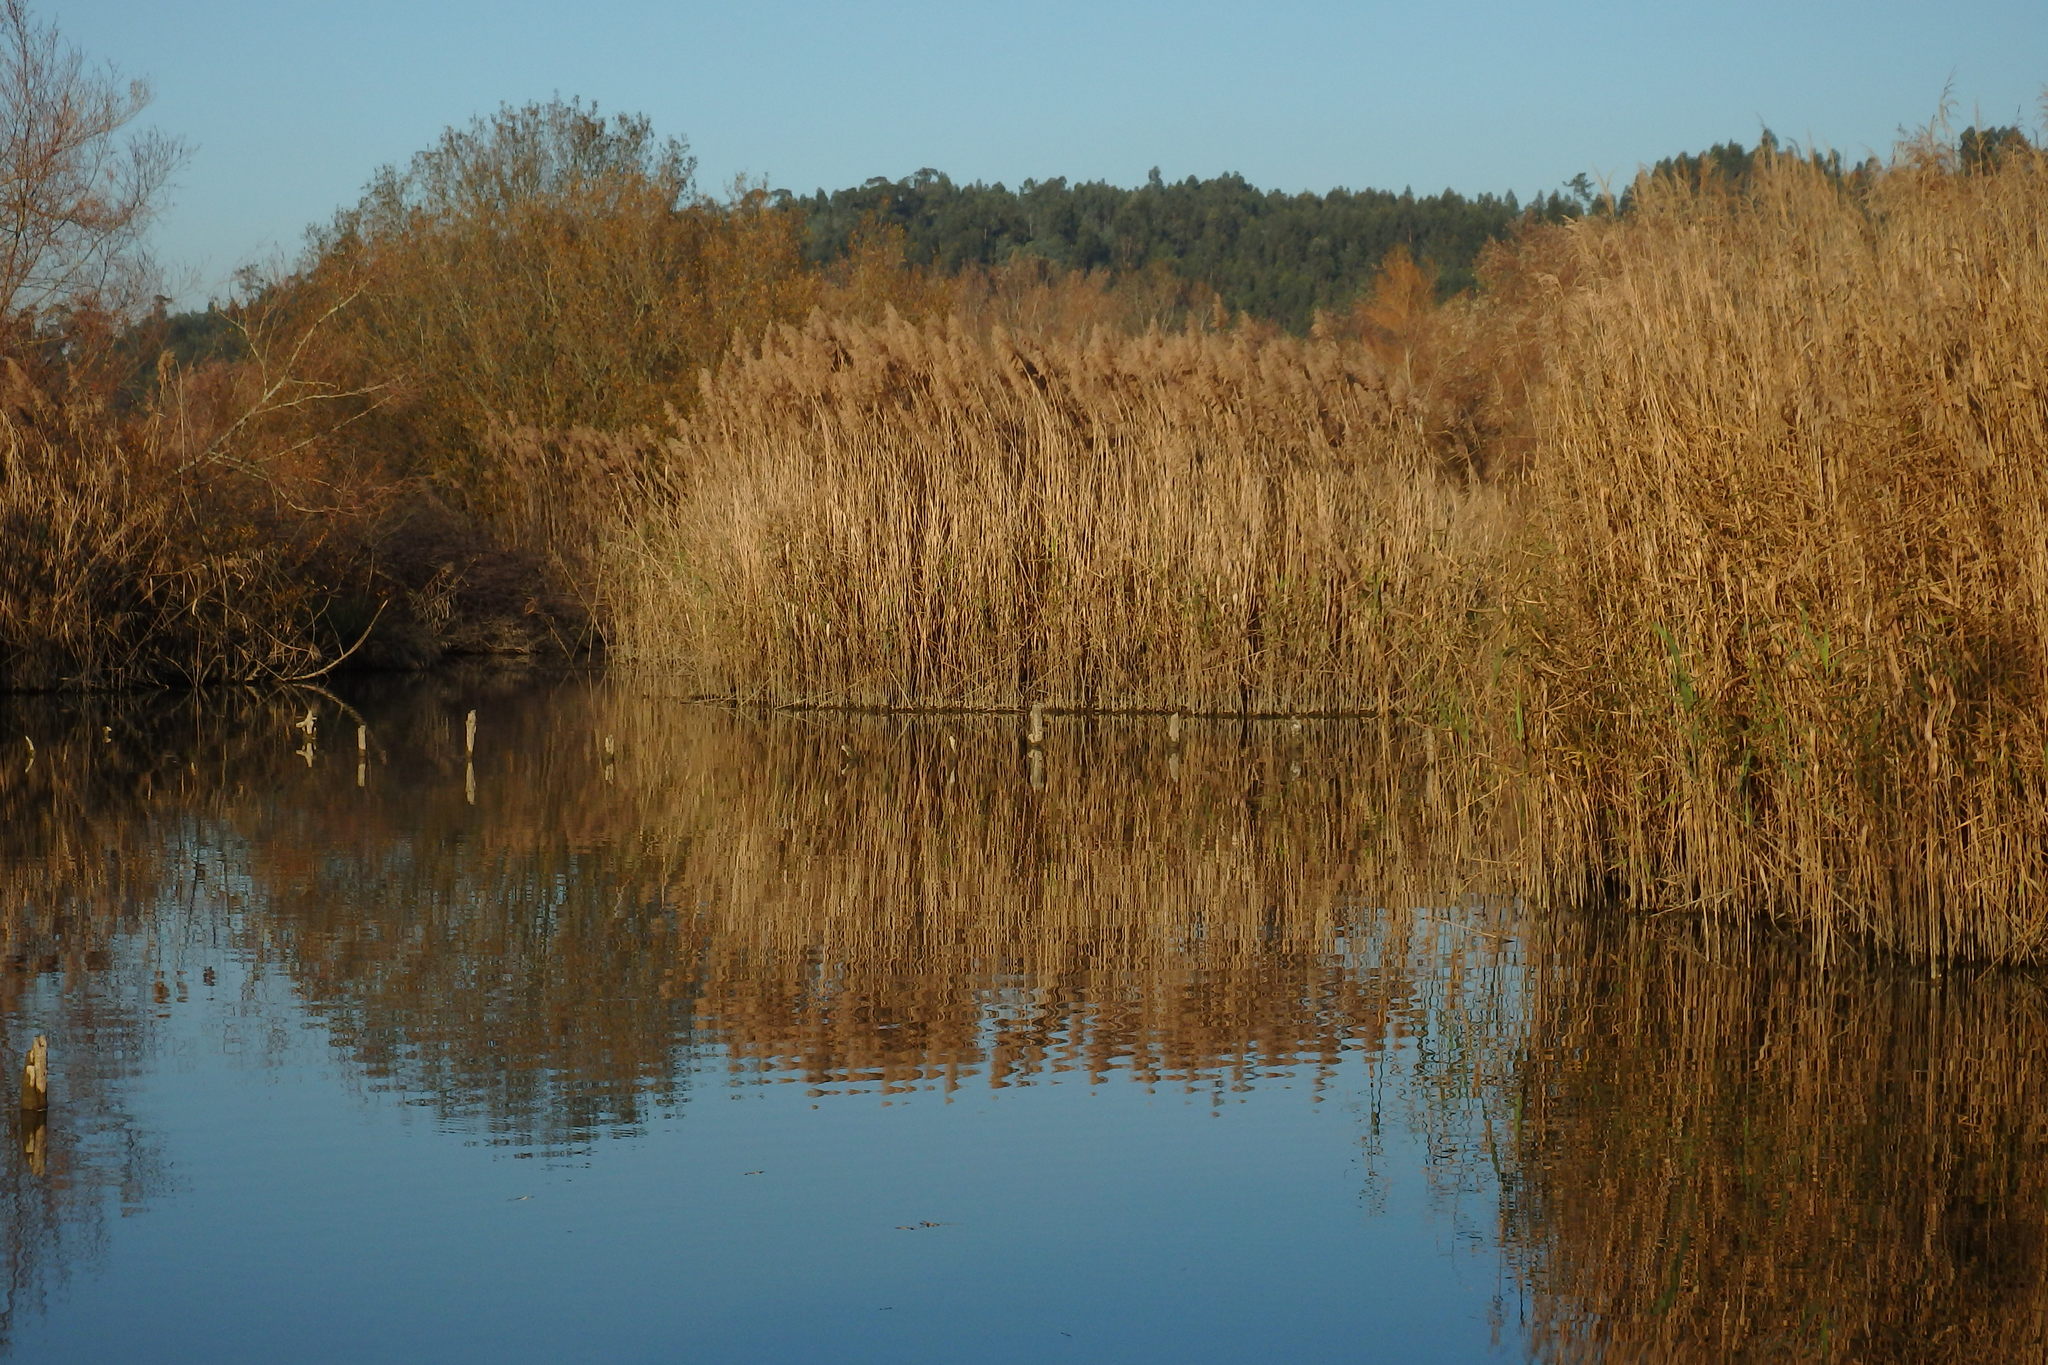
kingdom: Plantae
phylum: Tracheophyta
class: Liliopsida
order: Poales
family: Poaceae
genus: Phragmites
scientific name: Phragmites australis
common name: Common reed
